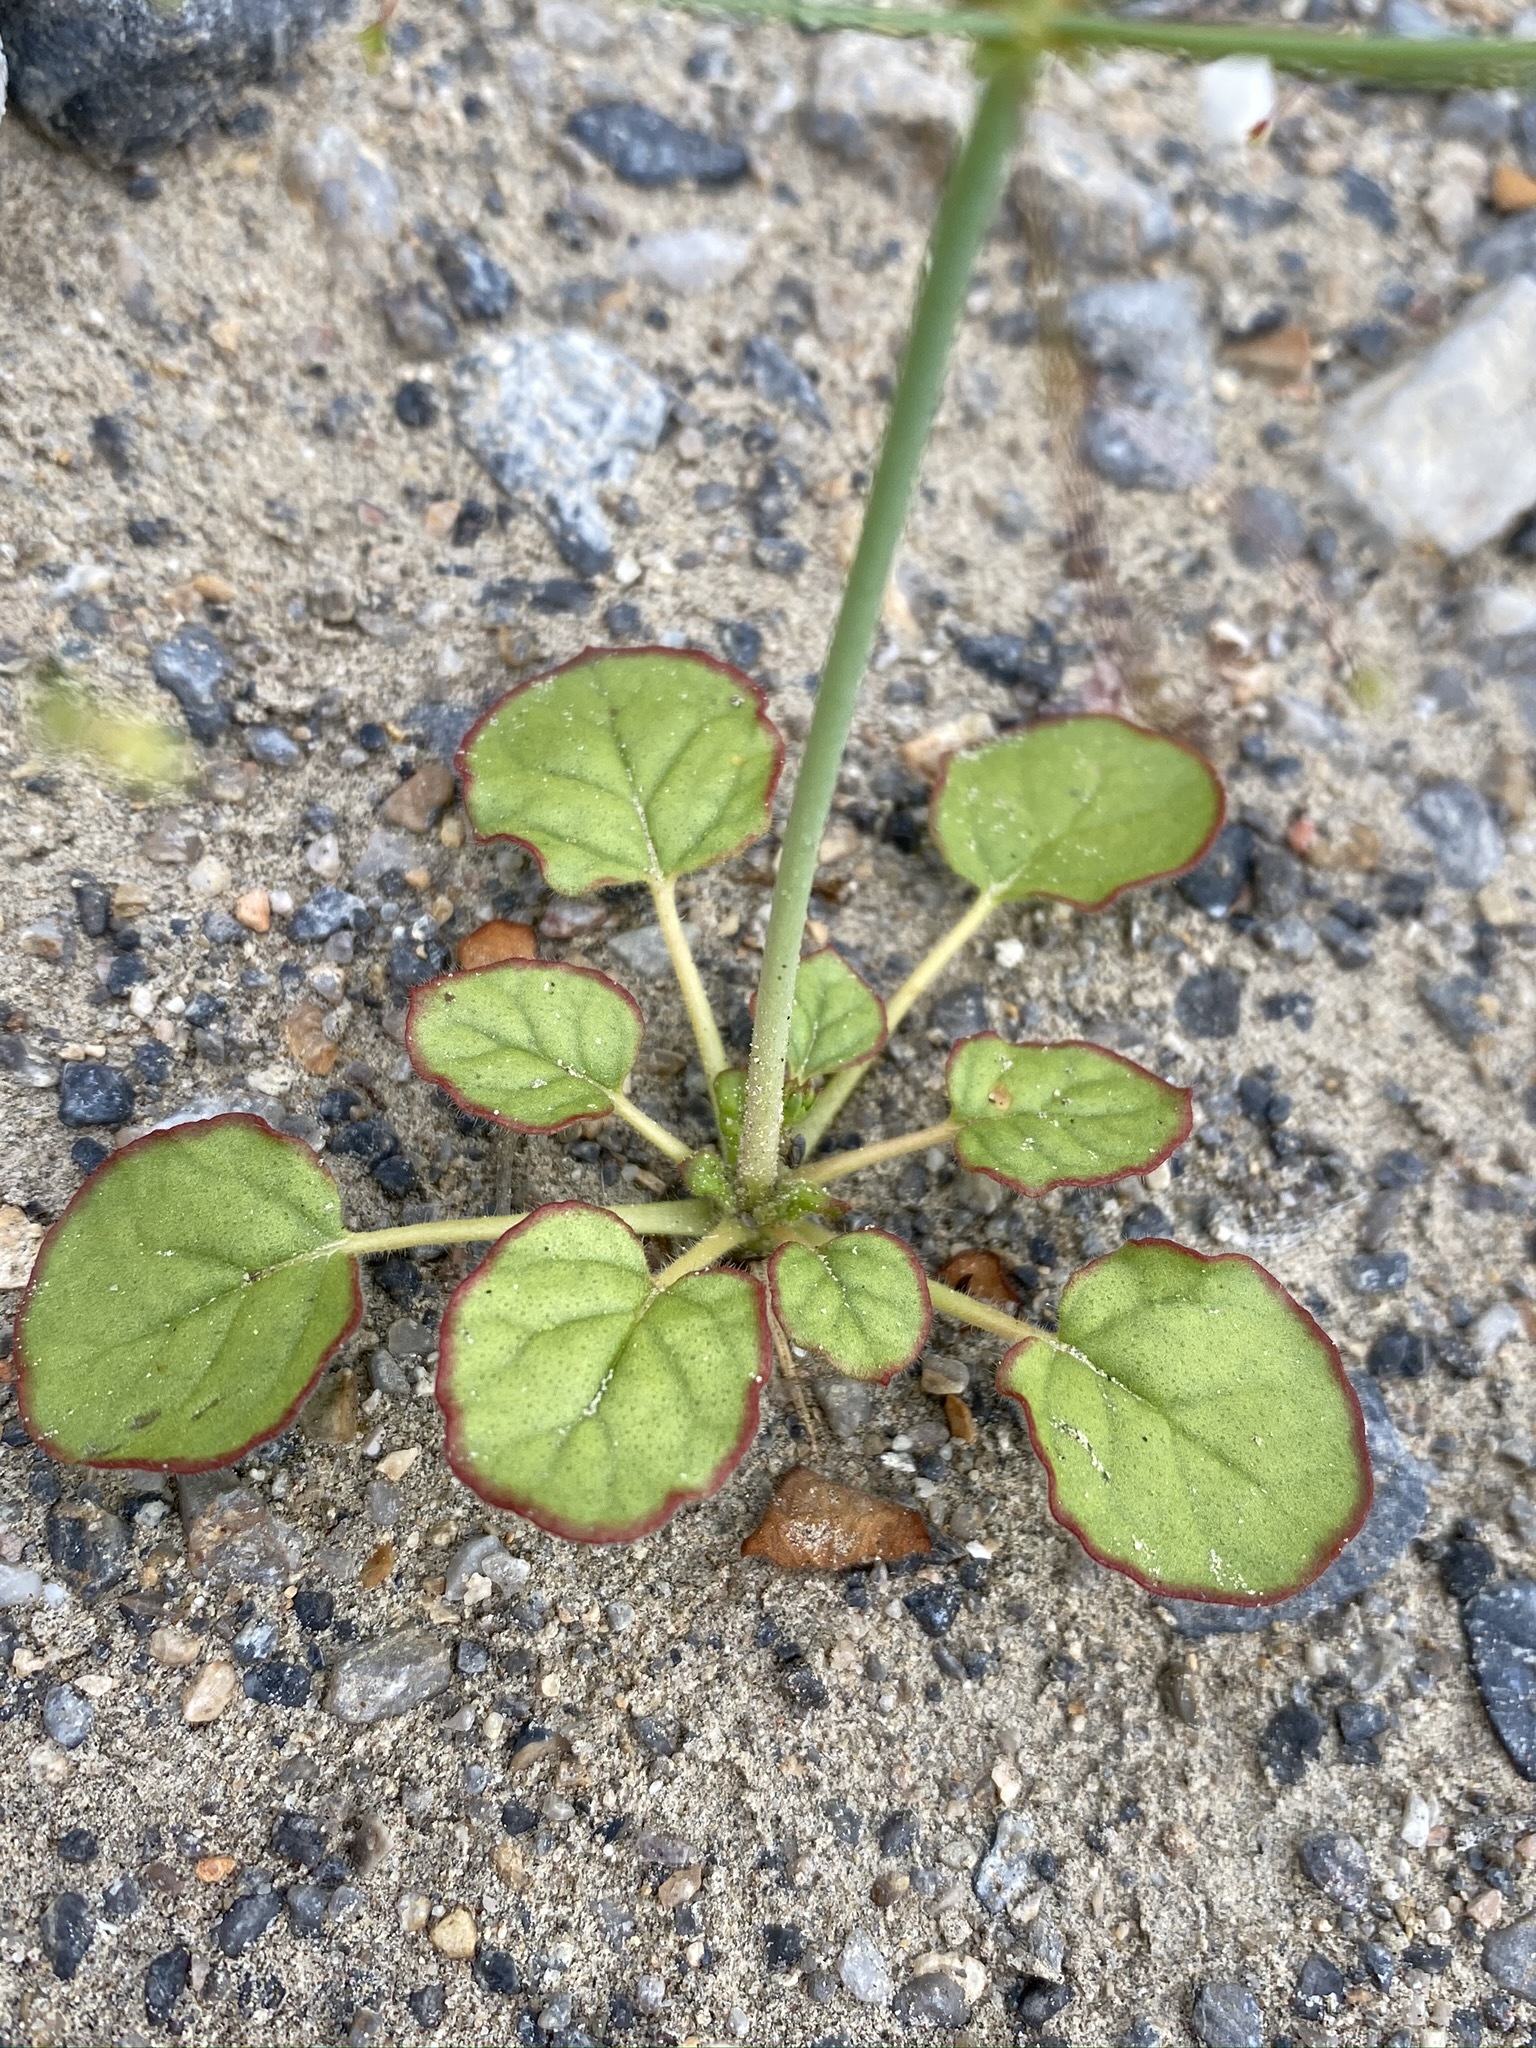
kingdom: Plantae
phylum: Tracheophyta
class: Magnoliopsida
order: Caryophyllales
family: Polygonaceae
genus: Eriogonum
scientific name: Eriogonum trichopes
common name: Little desert trumpet
